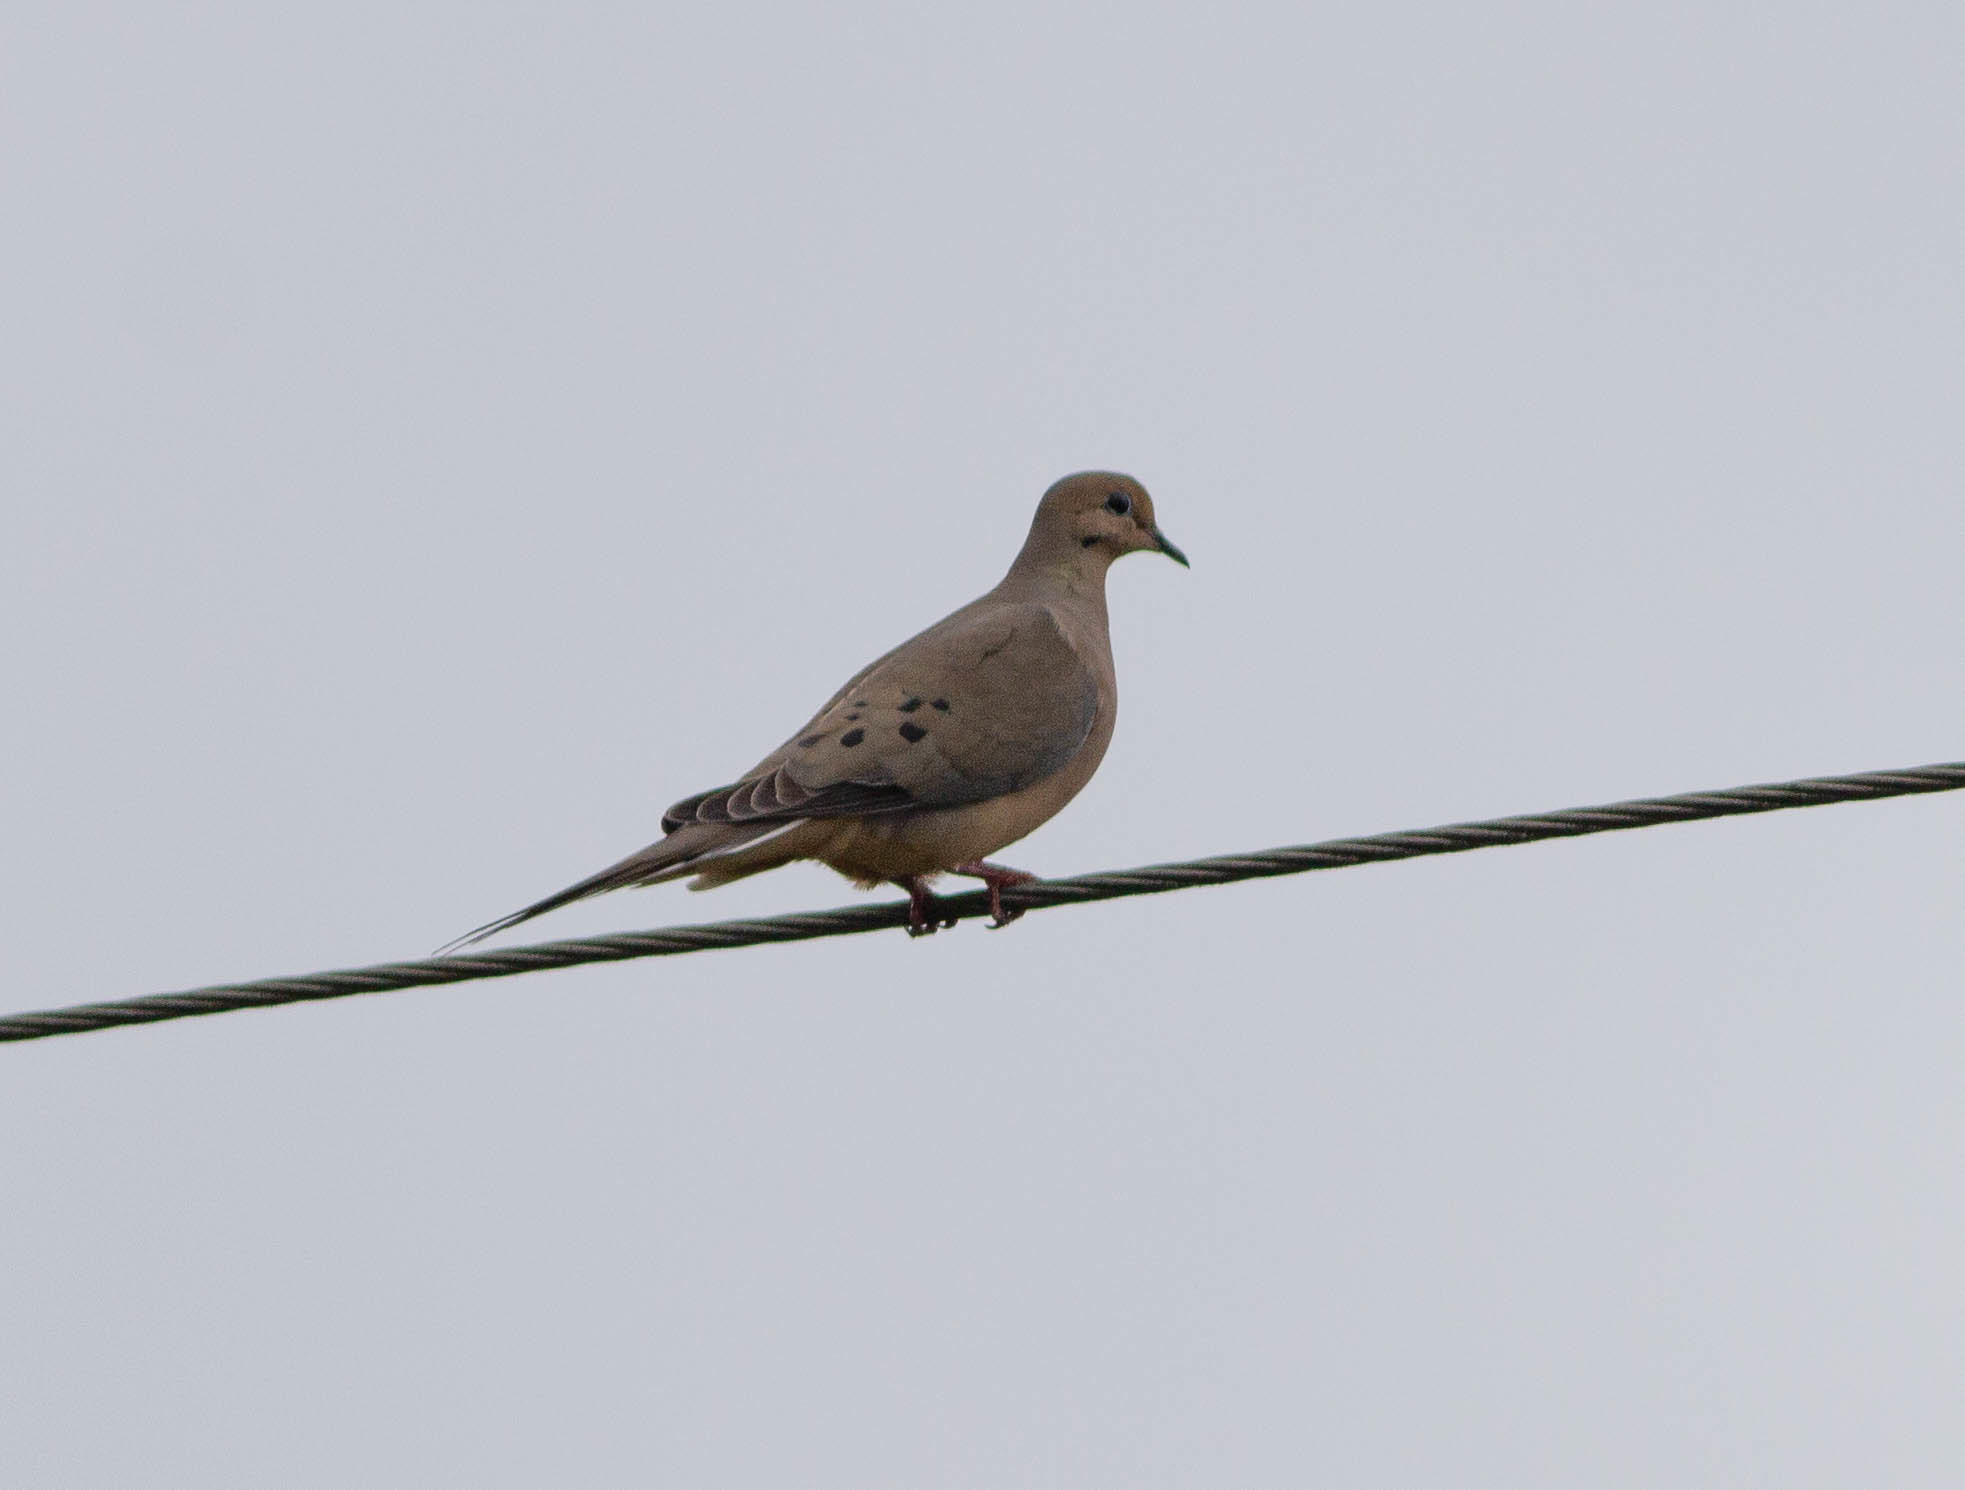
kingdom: Animalia
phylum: Chordata
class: Aves
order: Columbiformes
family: Columbidae
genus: Zenaida
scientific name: Zenaida macroura
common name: Mourning dove
